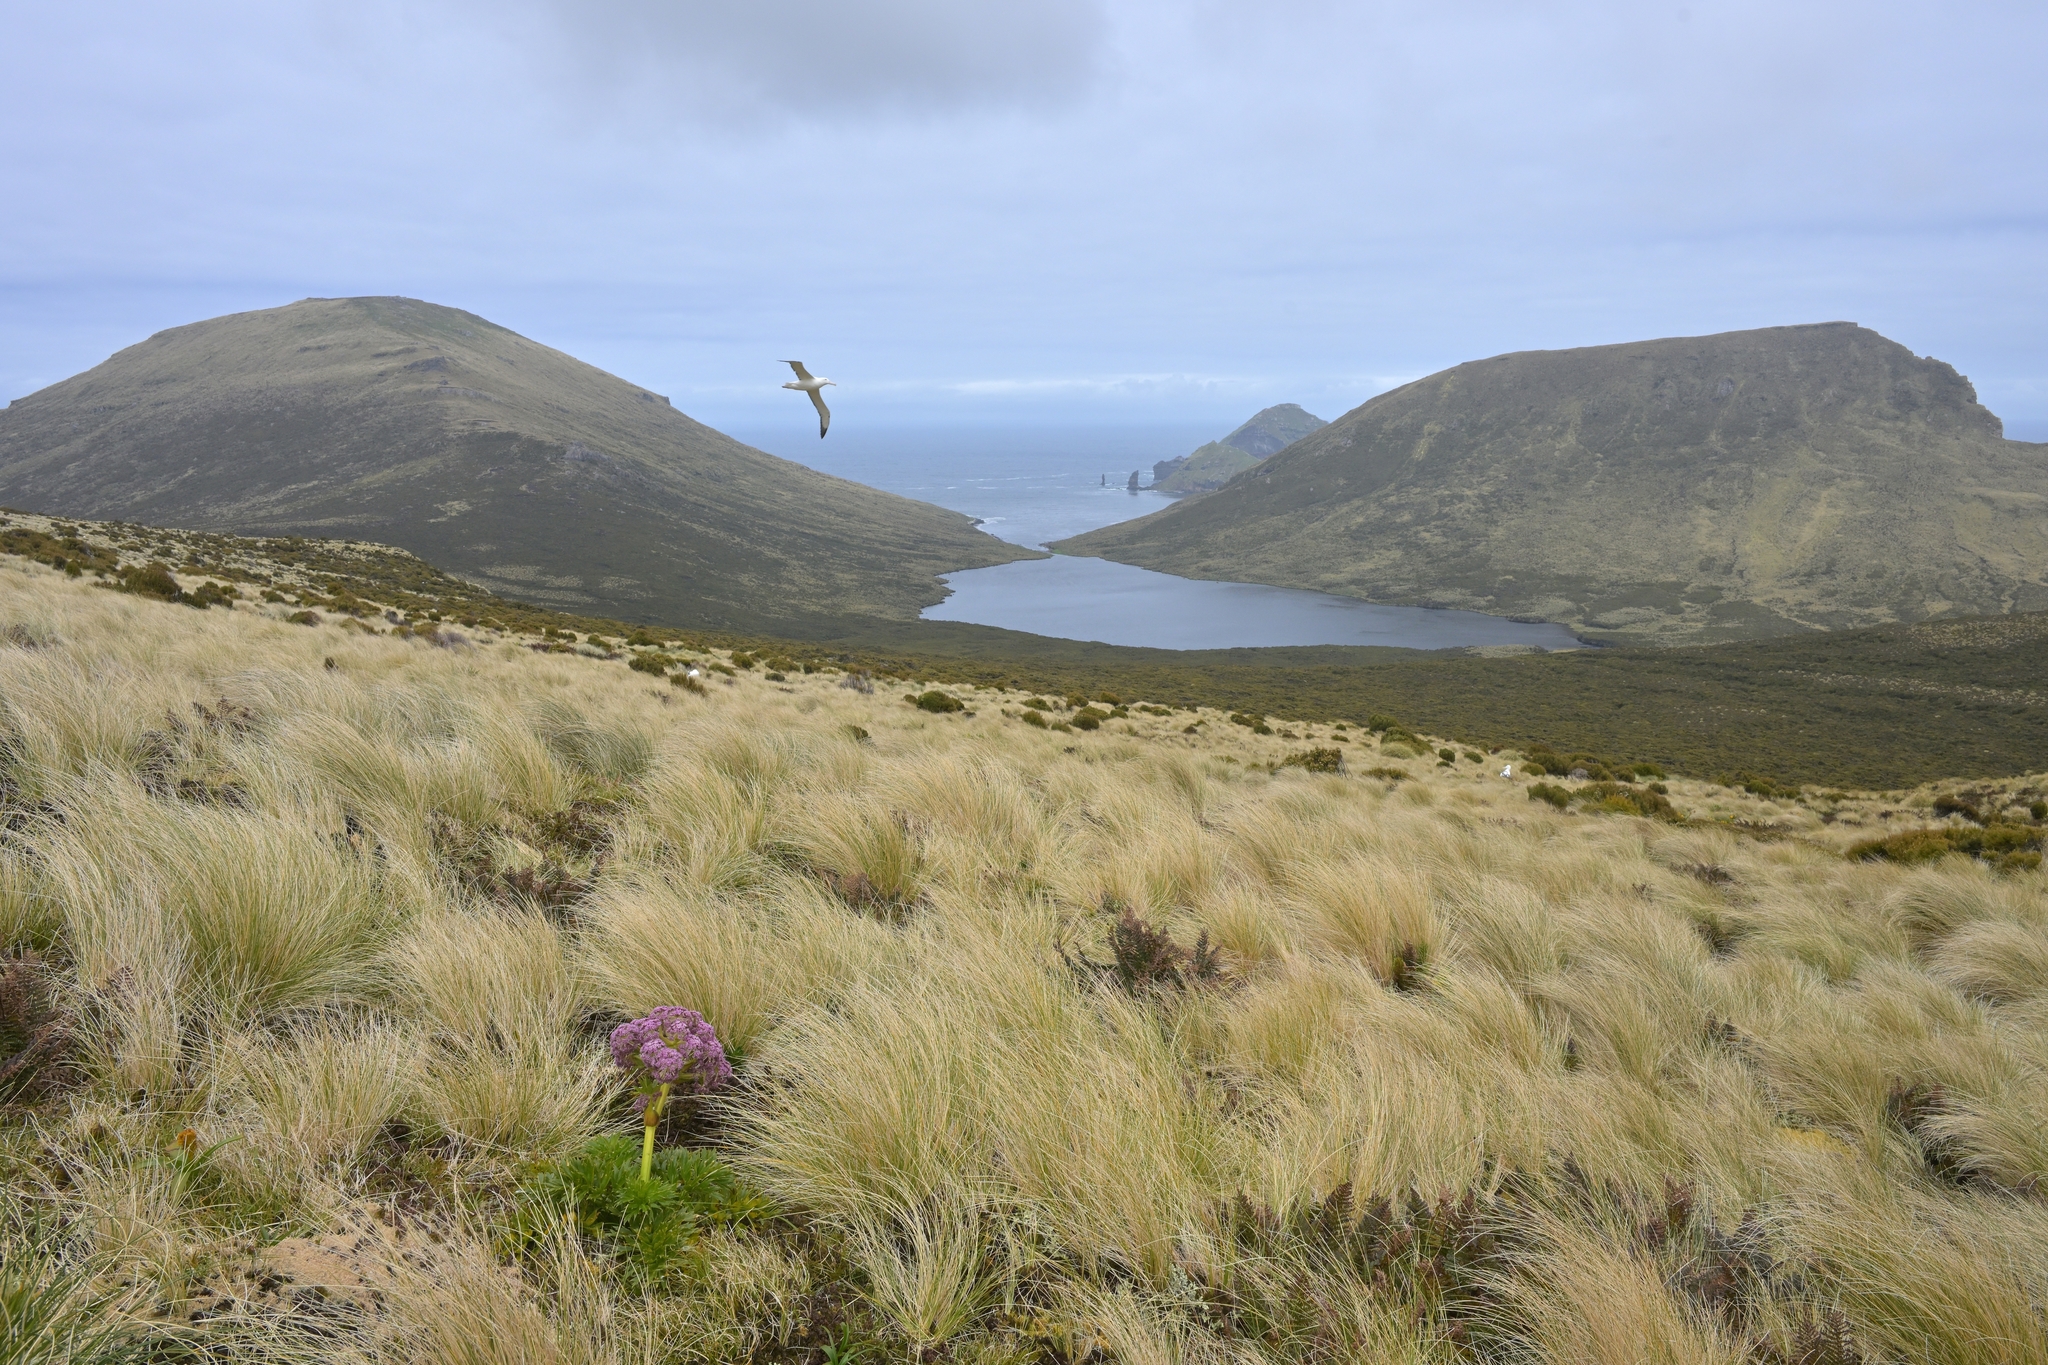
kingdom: Plantae
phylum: Tracheophyta
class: Magnoliopsida
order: Apiales
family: Apiaceae
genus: Anisotome
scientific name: Anisotome latifolia
